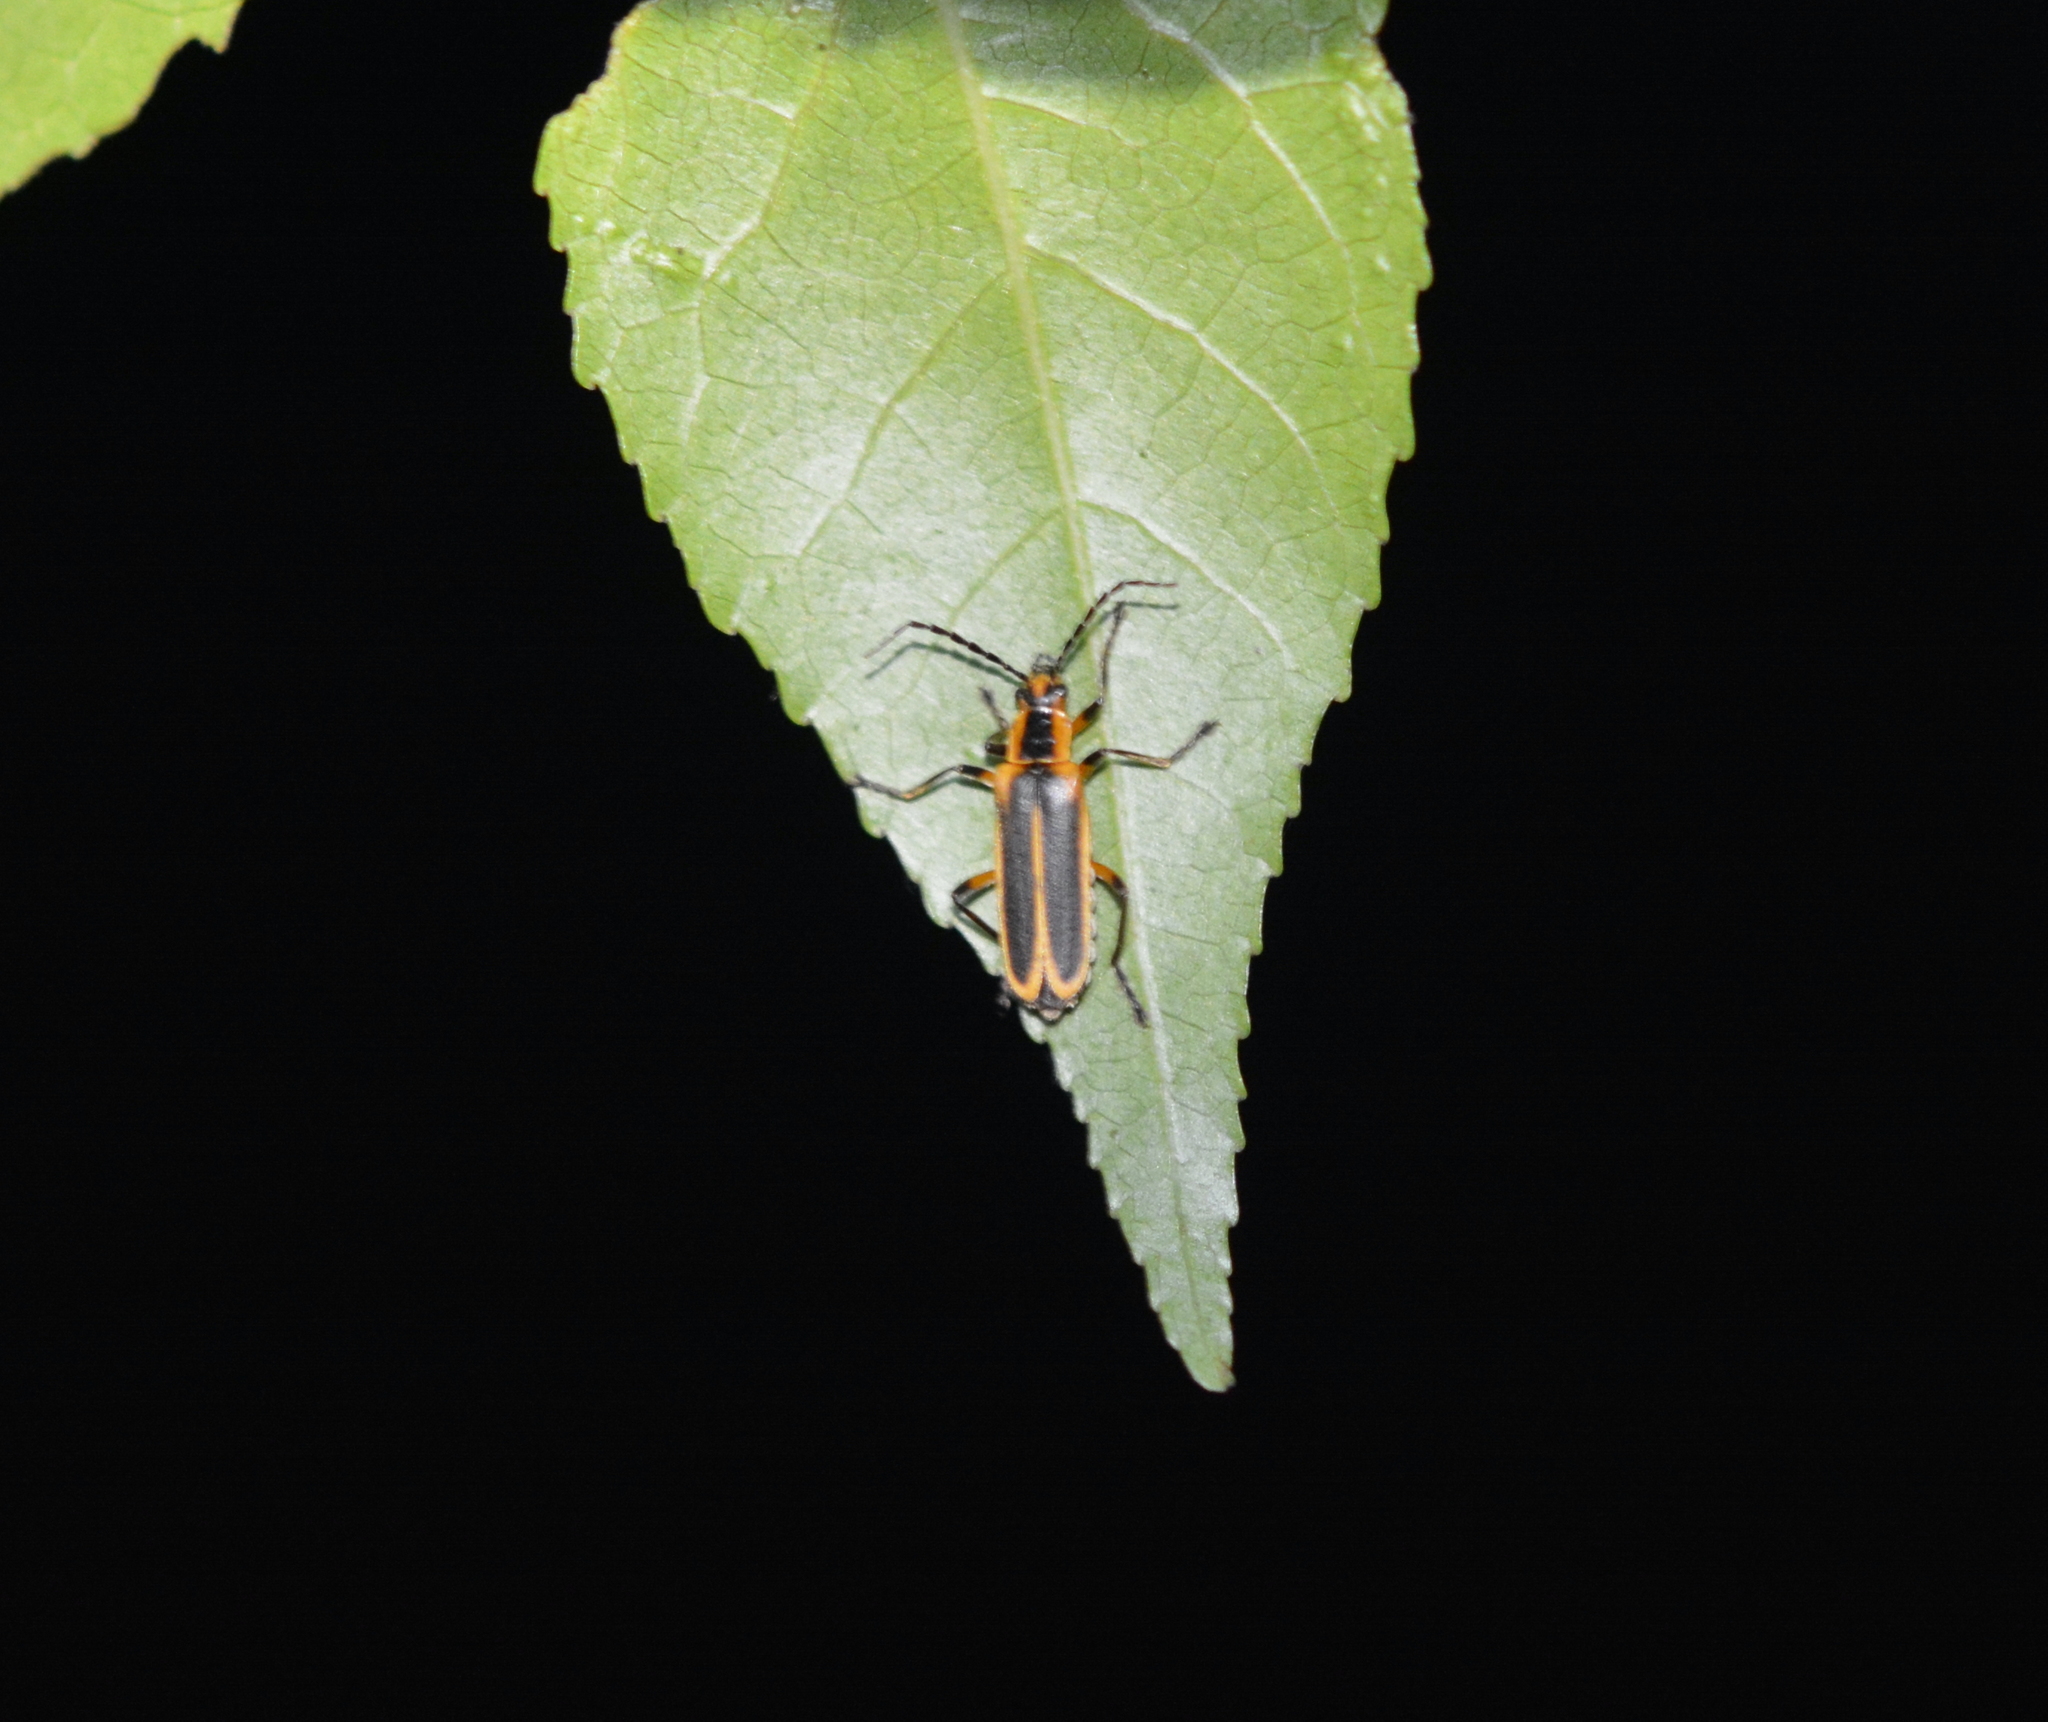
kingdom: Animalia
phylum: Arthropoda
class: Insecta
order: Coleoptera
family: Cantharidae
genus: Chauliognathus
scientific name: Chauliognathus marginatus
